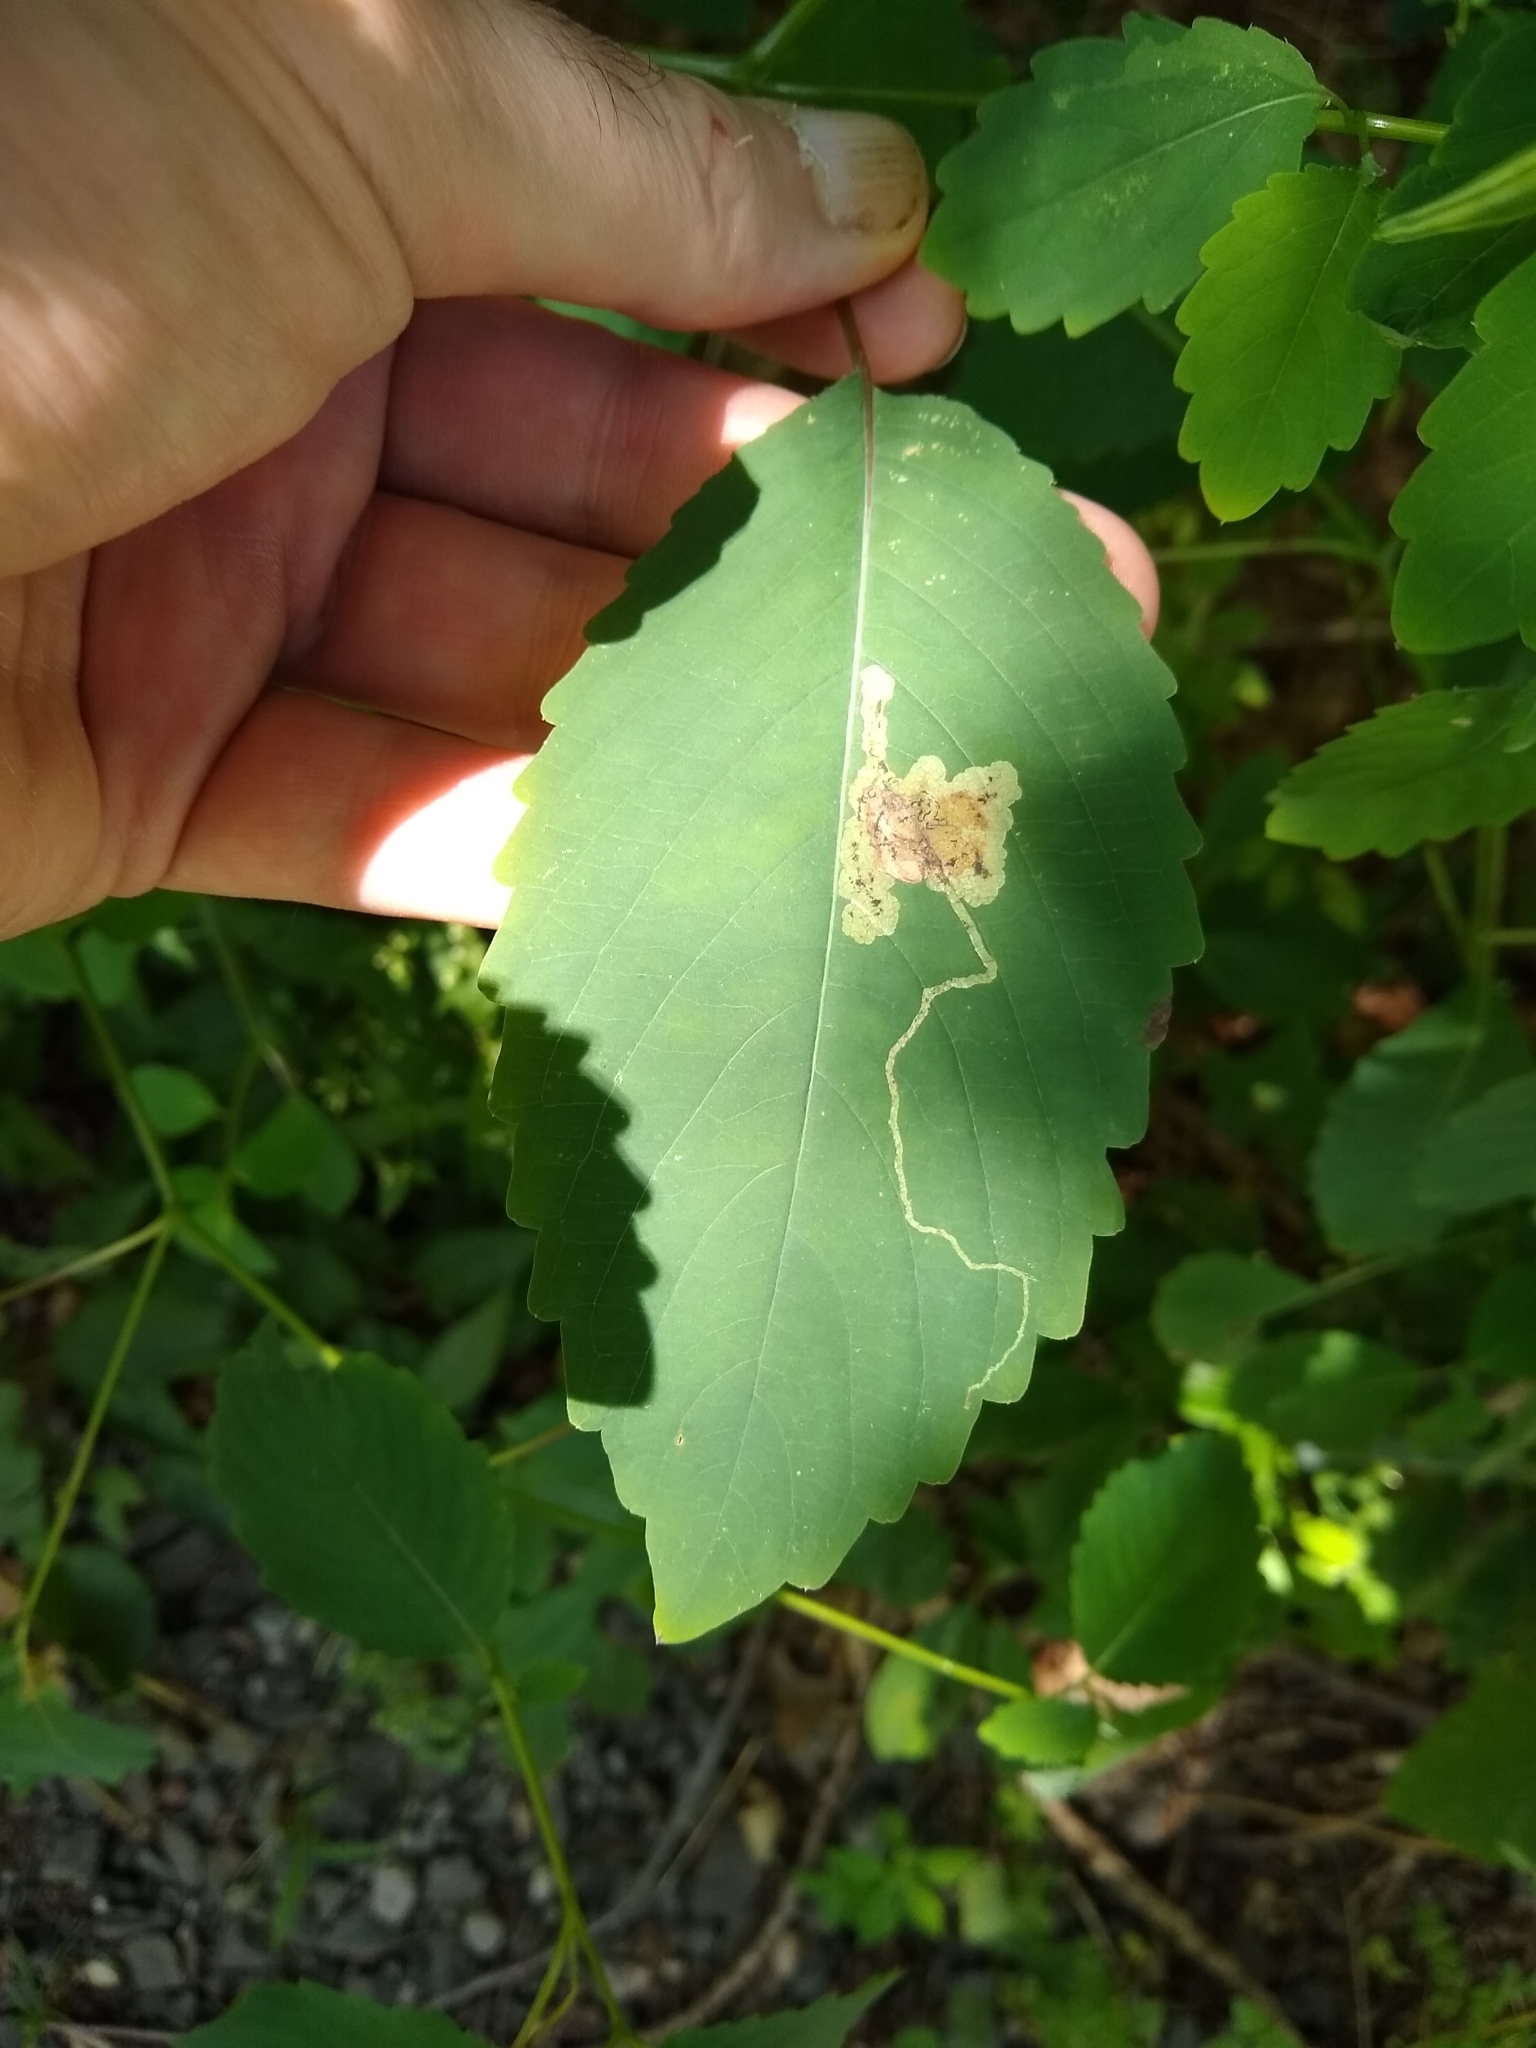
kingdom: Animalia
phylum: Arthropoda
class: Insecta
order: Diptera
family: Agromyzidae
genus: Phytoliriomyza
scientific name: Phytoliriomyza melampyga
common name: Jewelweed leaf-miner fly
